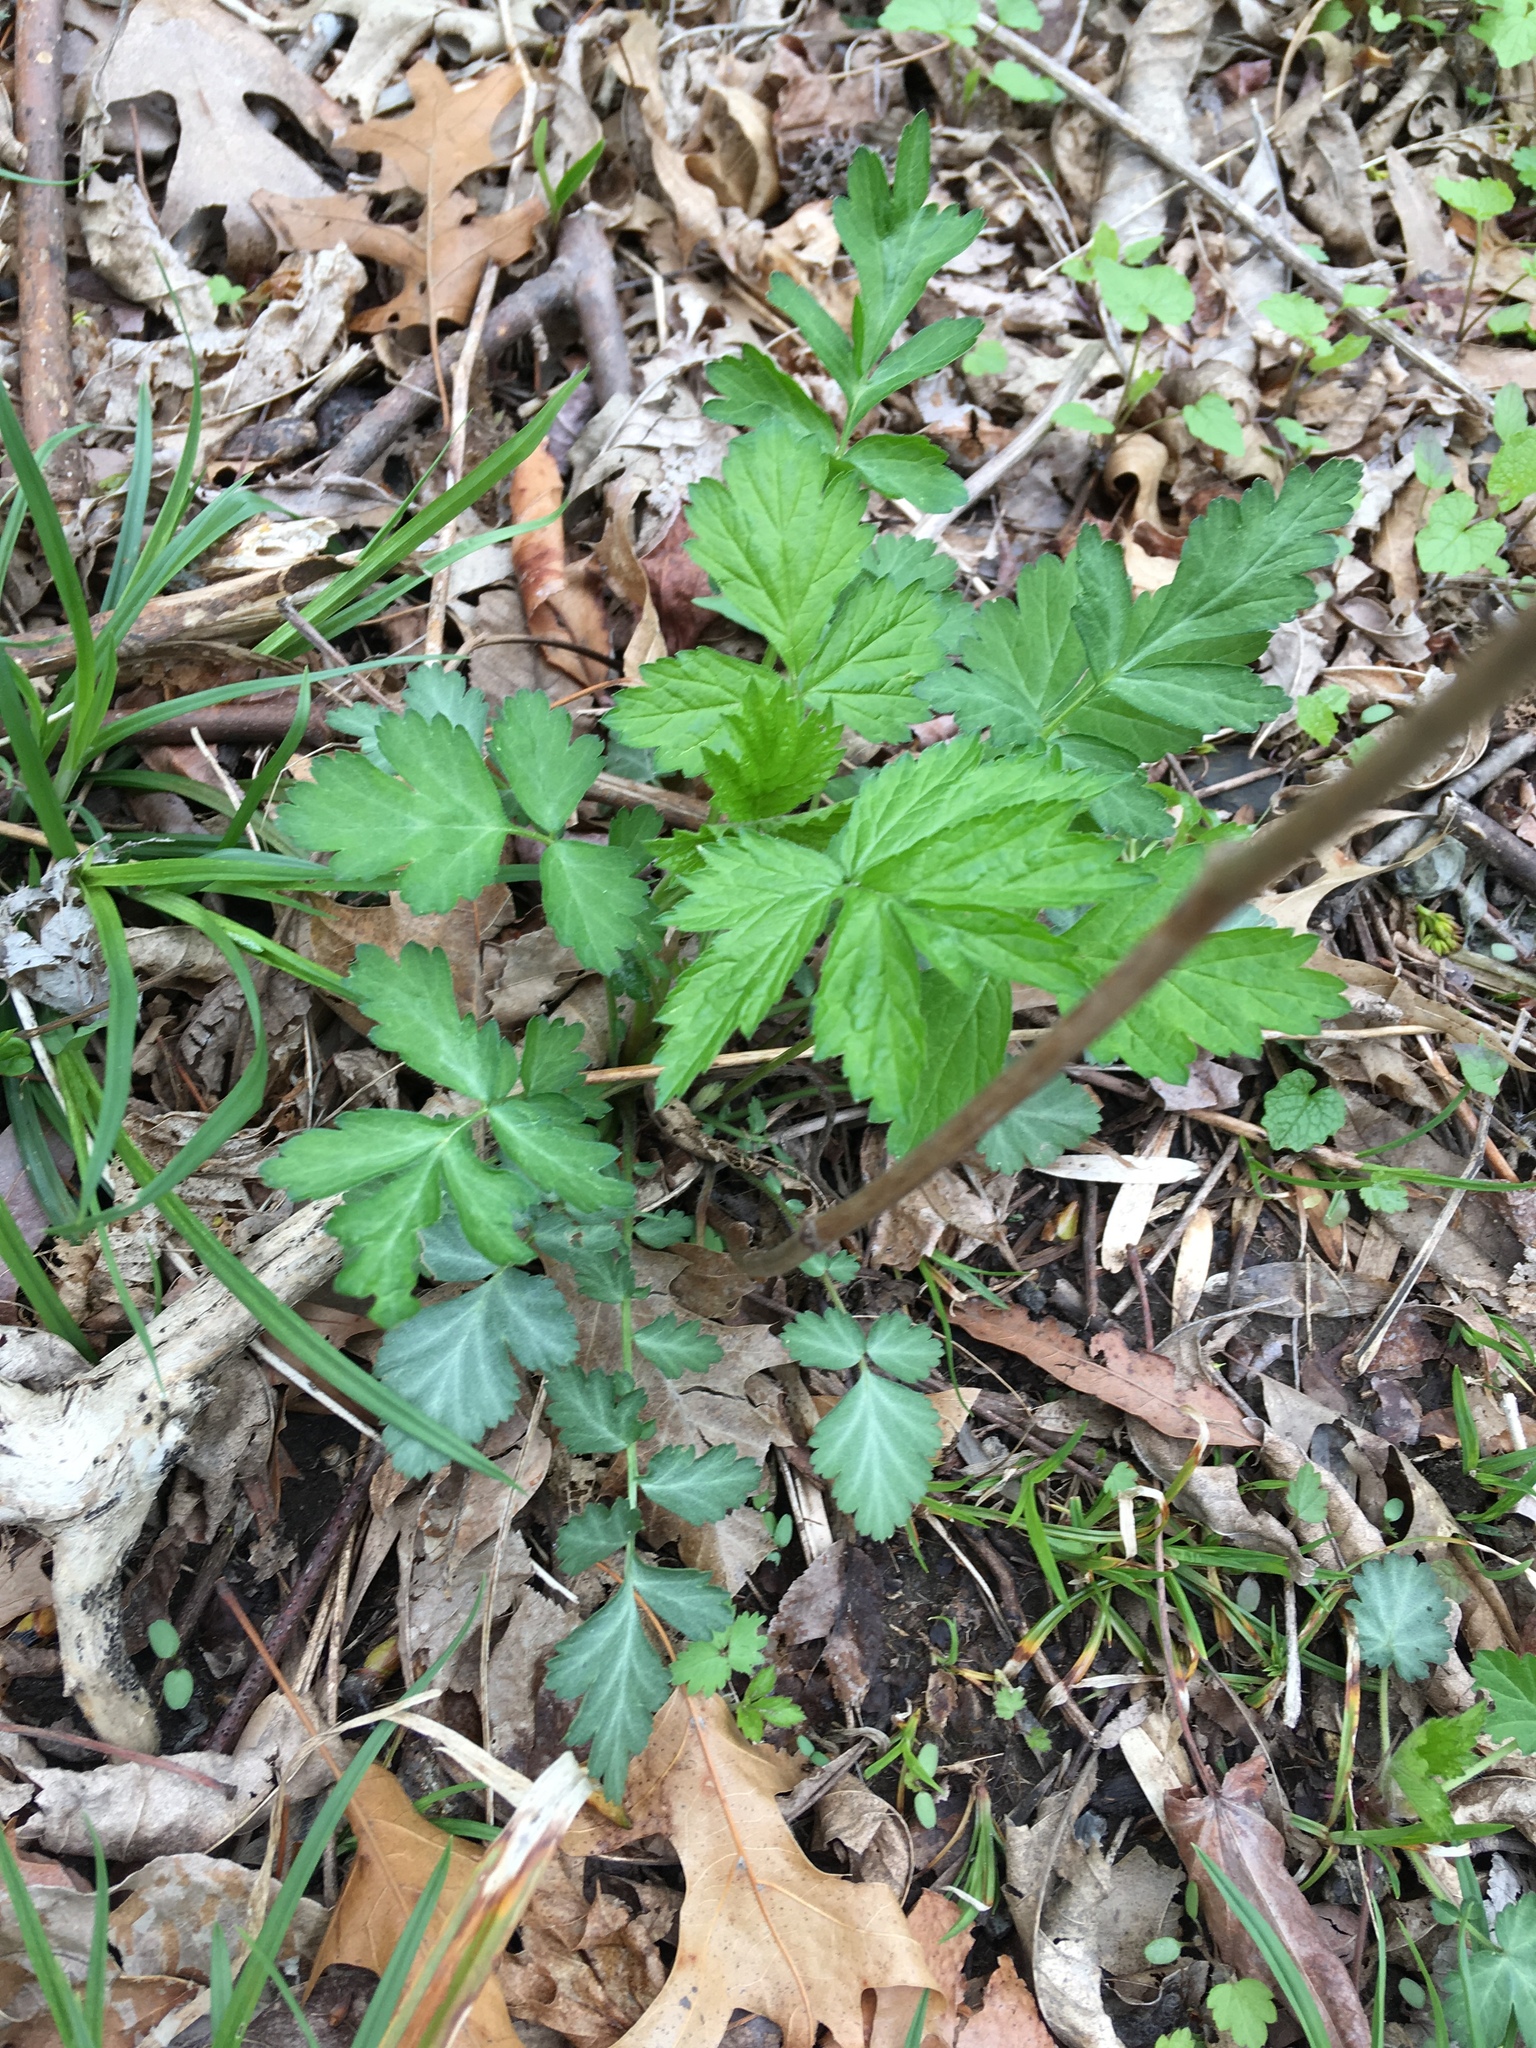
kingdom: Plantae
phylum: Tracheophyta
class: Magnoliopsida
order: Rosales
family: Rosaceae
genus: Geum
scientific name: Geum canadense
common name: White avens
